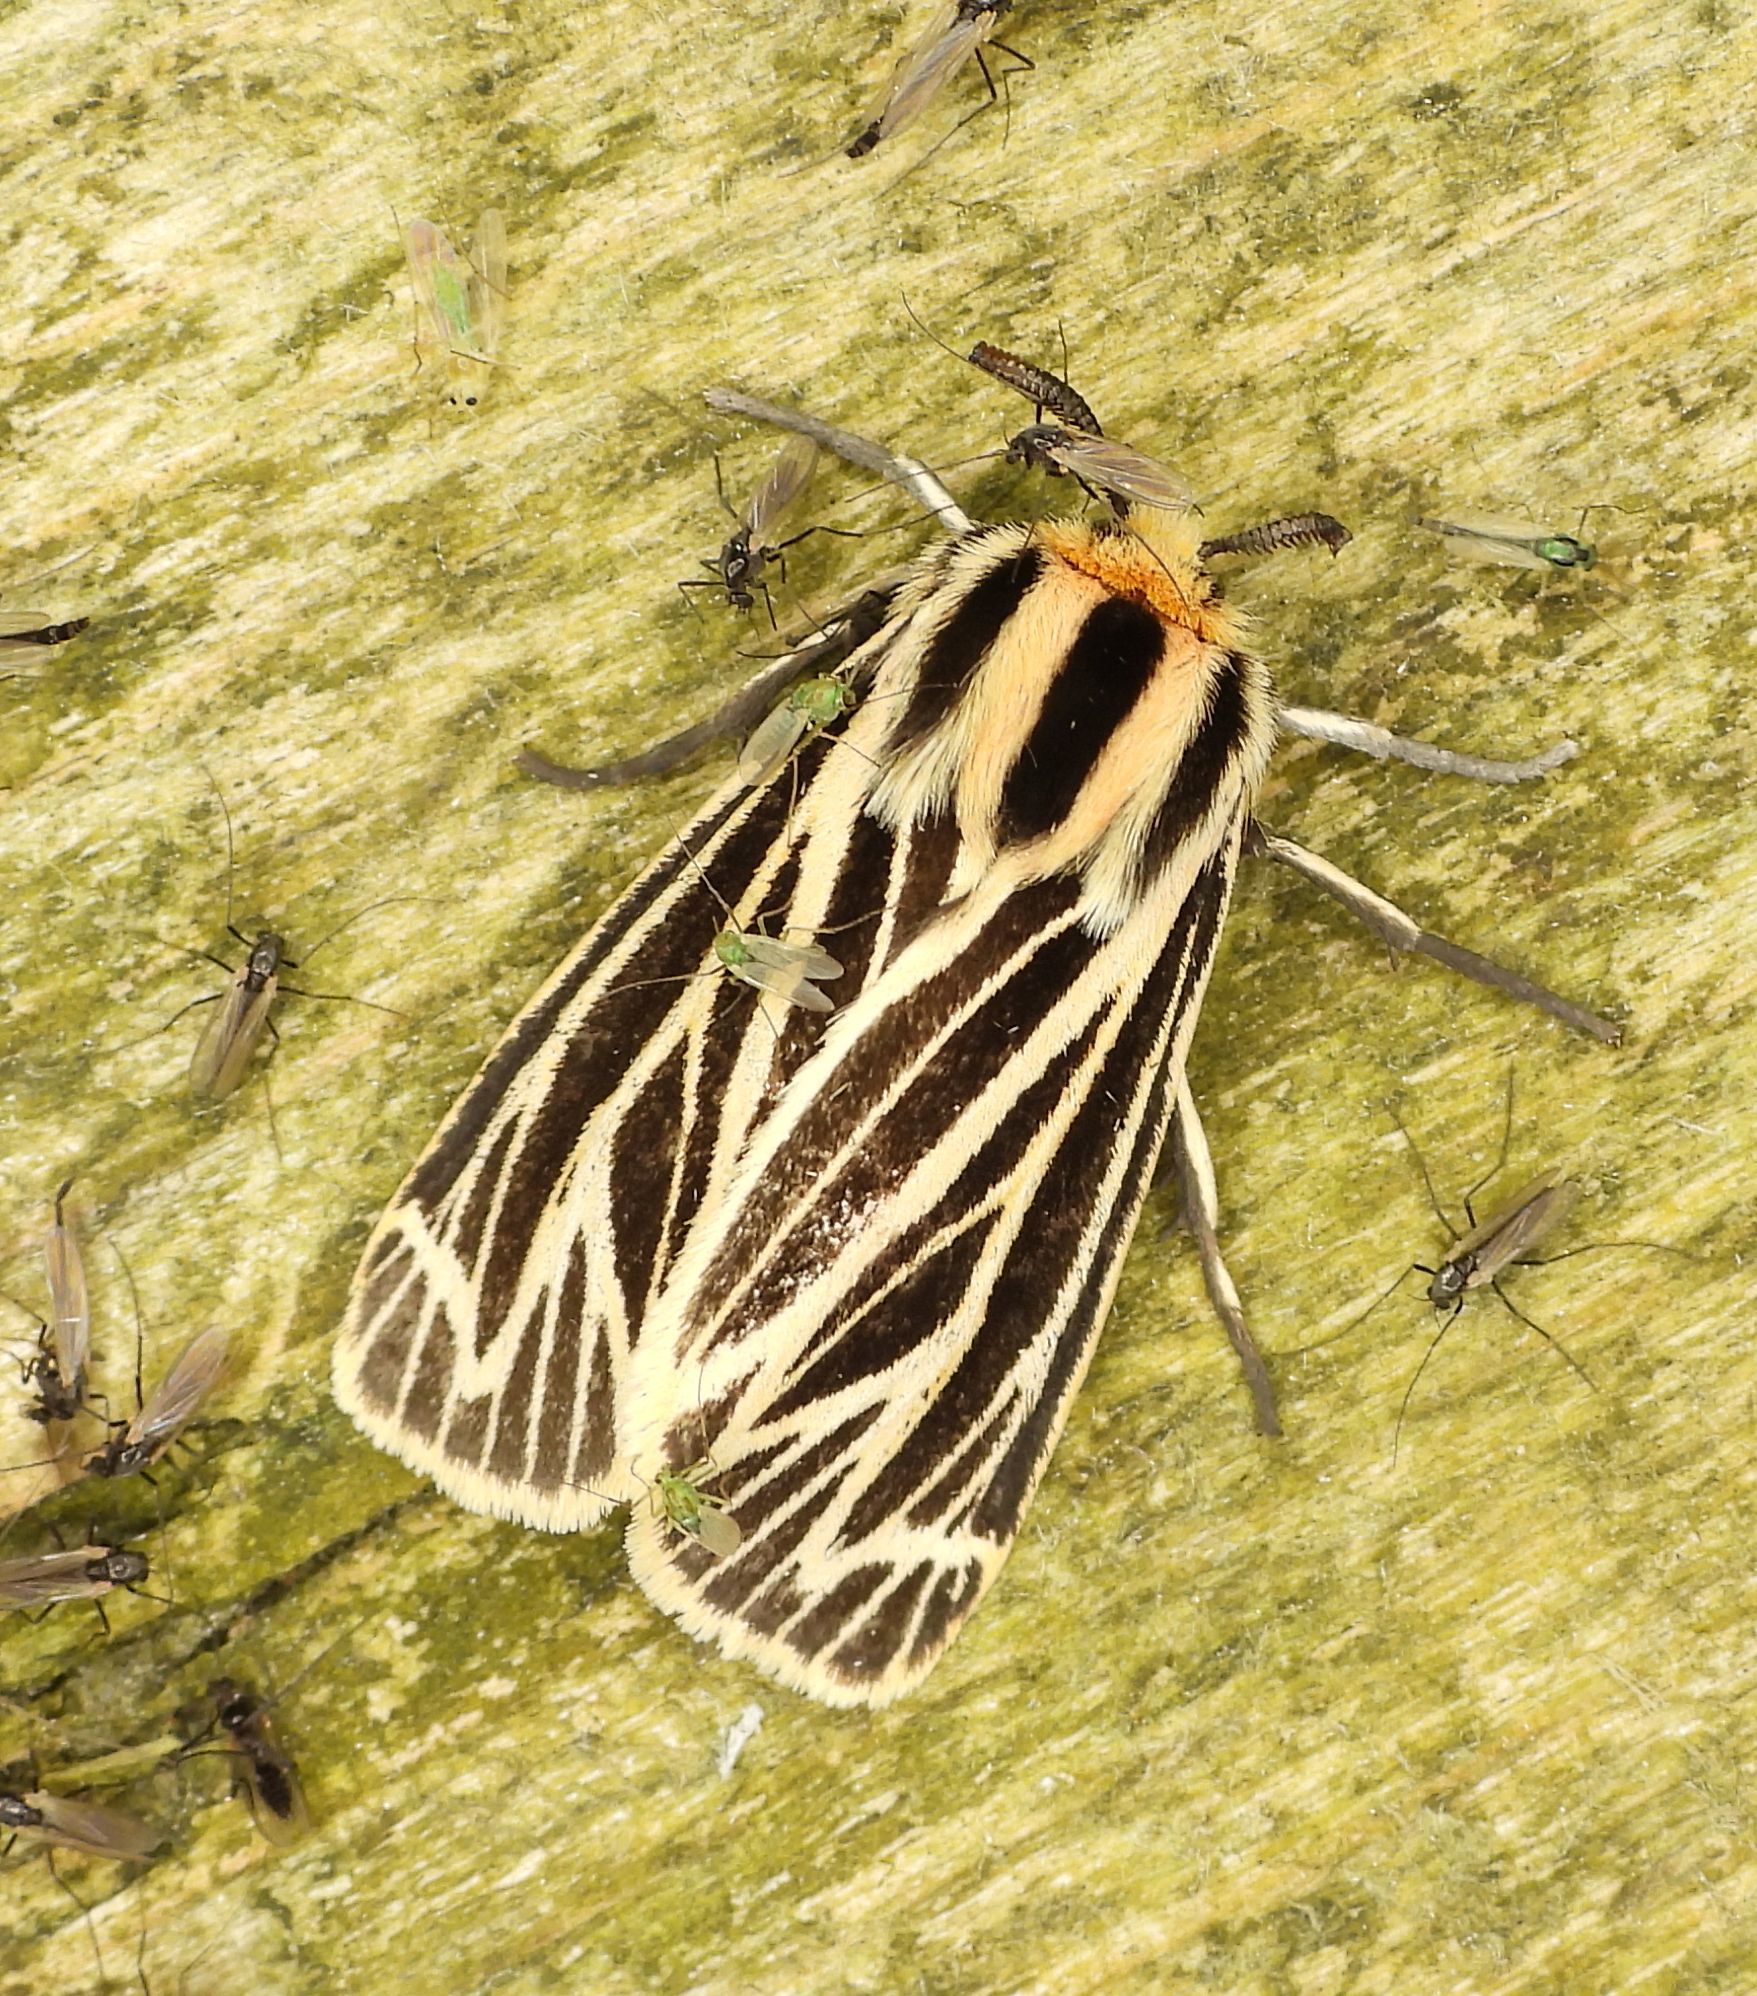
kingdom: Animalia
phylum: Arthropoda
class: Insecta
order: Lepidoptera
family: Erebidae
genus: Grammia
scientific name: Grammia virguncula
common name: Little tiger moth
